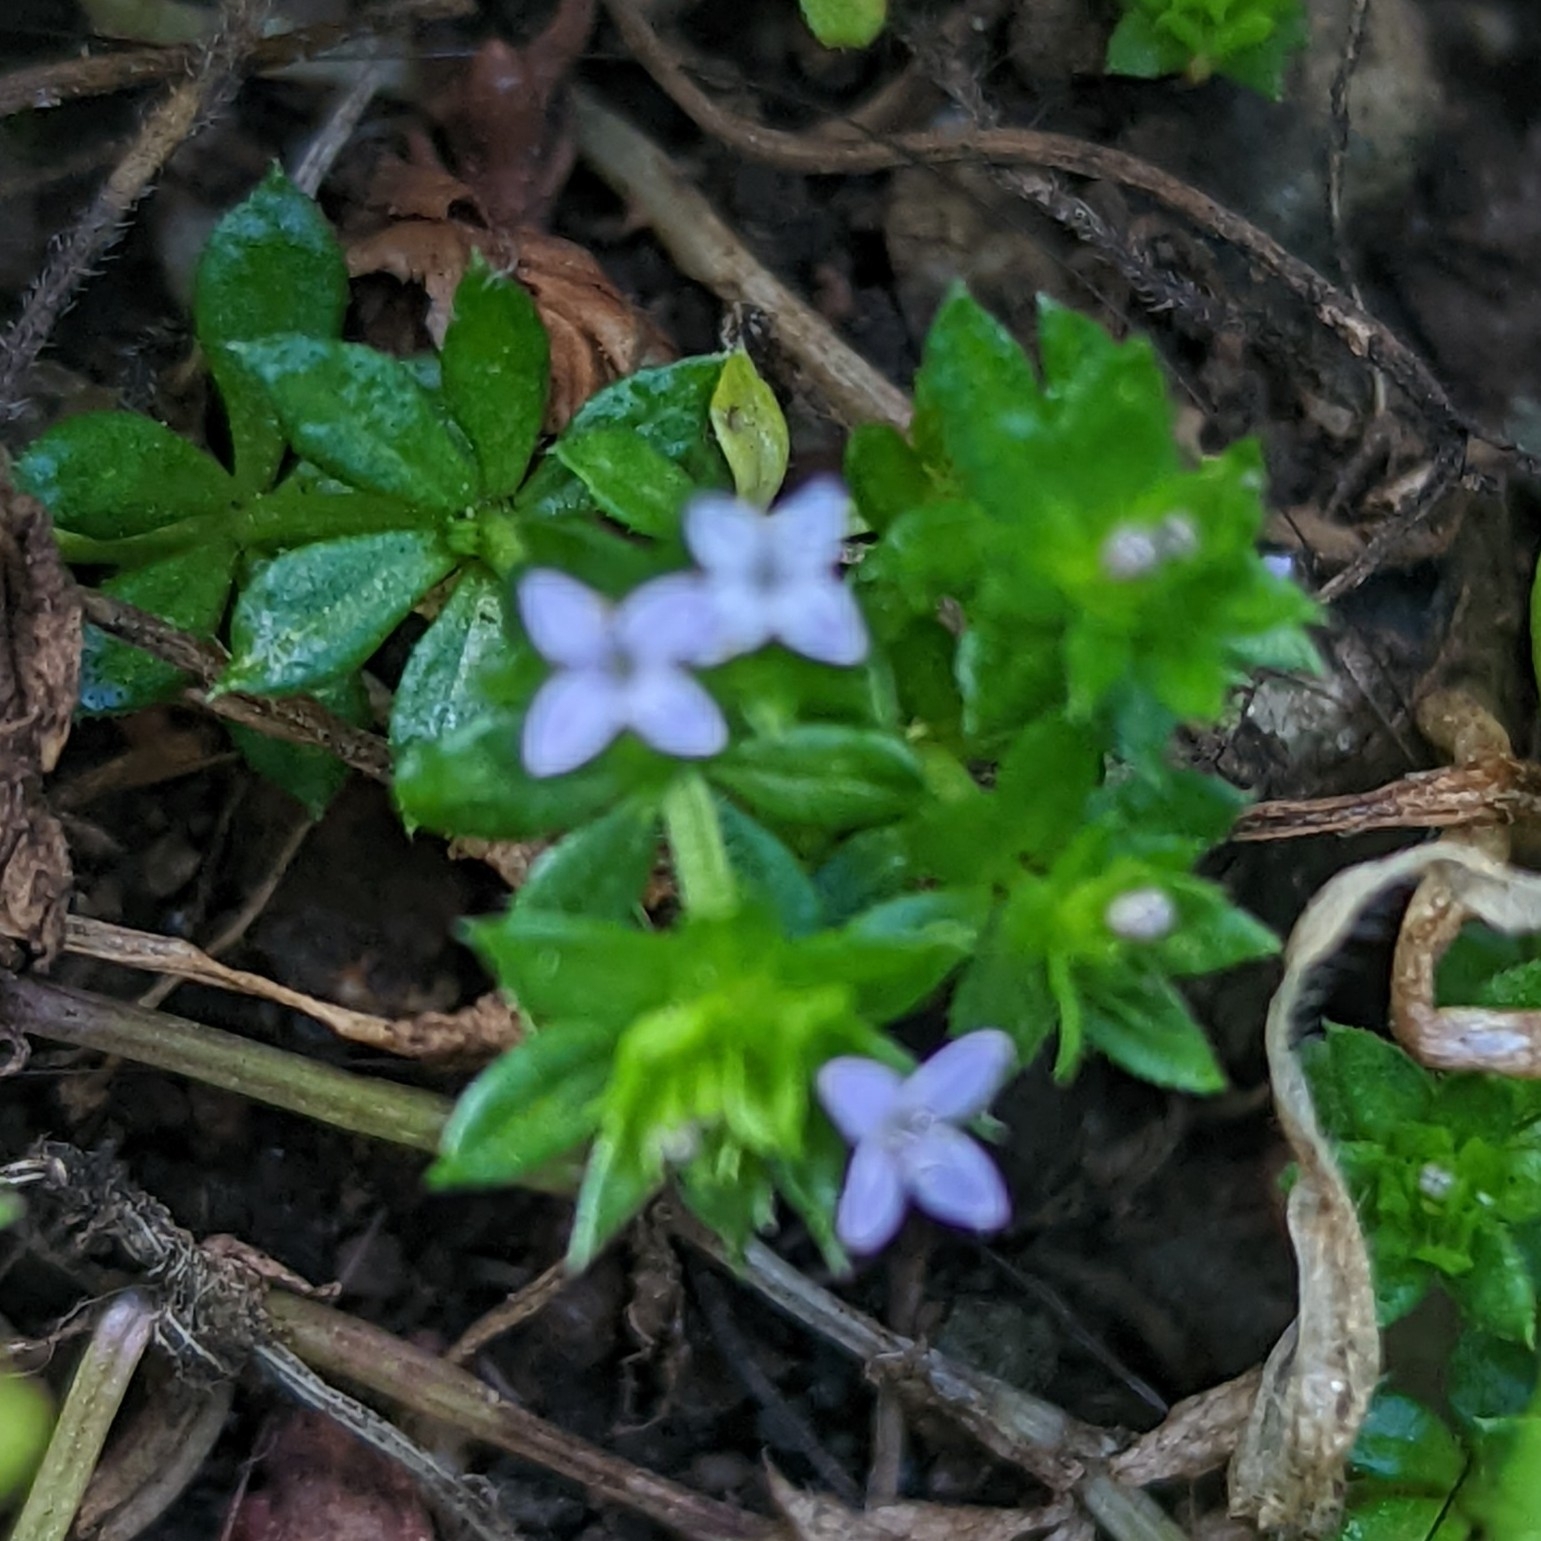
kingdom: Plantae
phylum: Tracheophyta
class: Magnoliopsida
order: Gentianales
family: Rubiaceae
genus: Sherardia
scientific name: Sherardia arvensis
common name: Field madder
